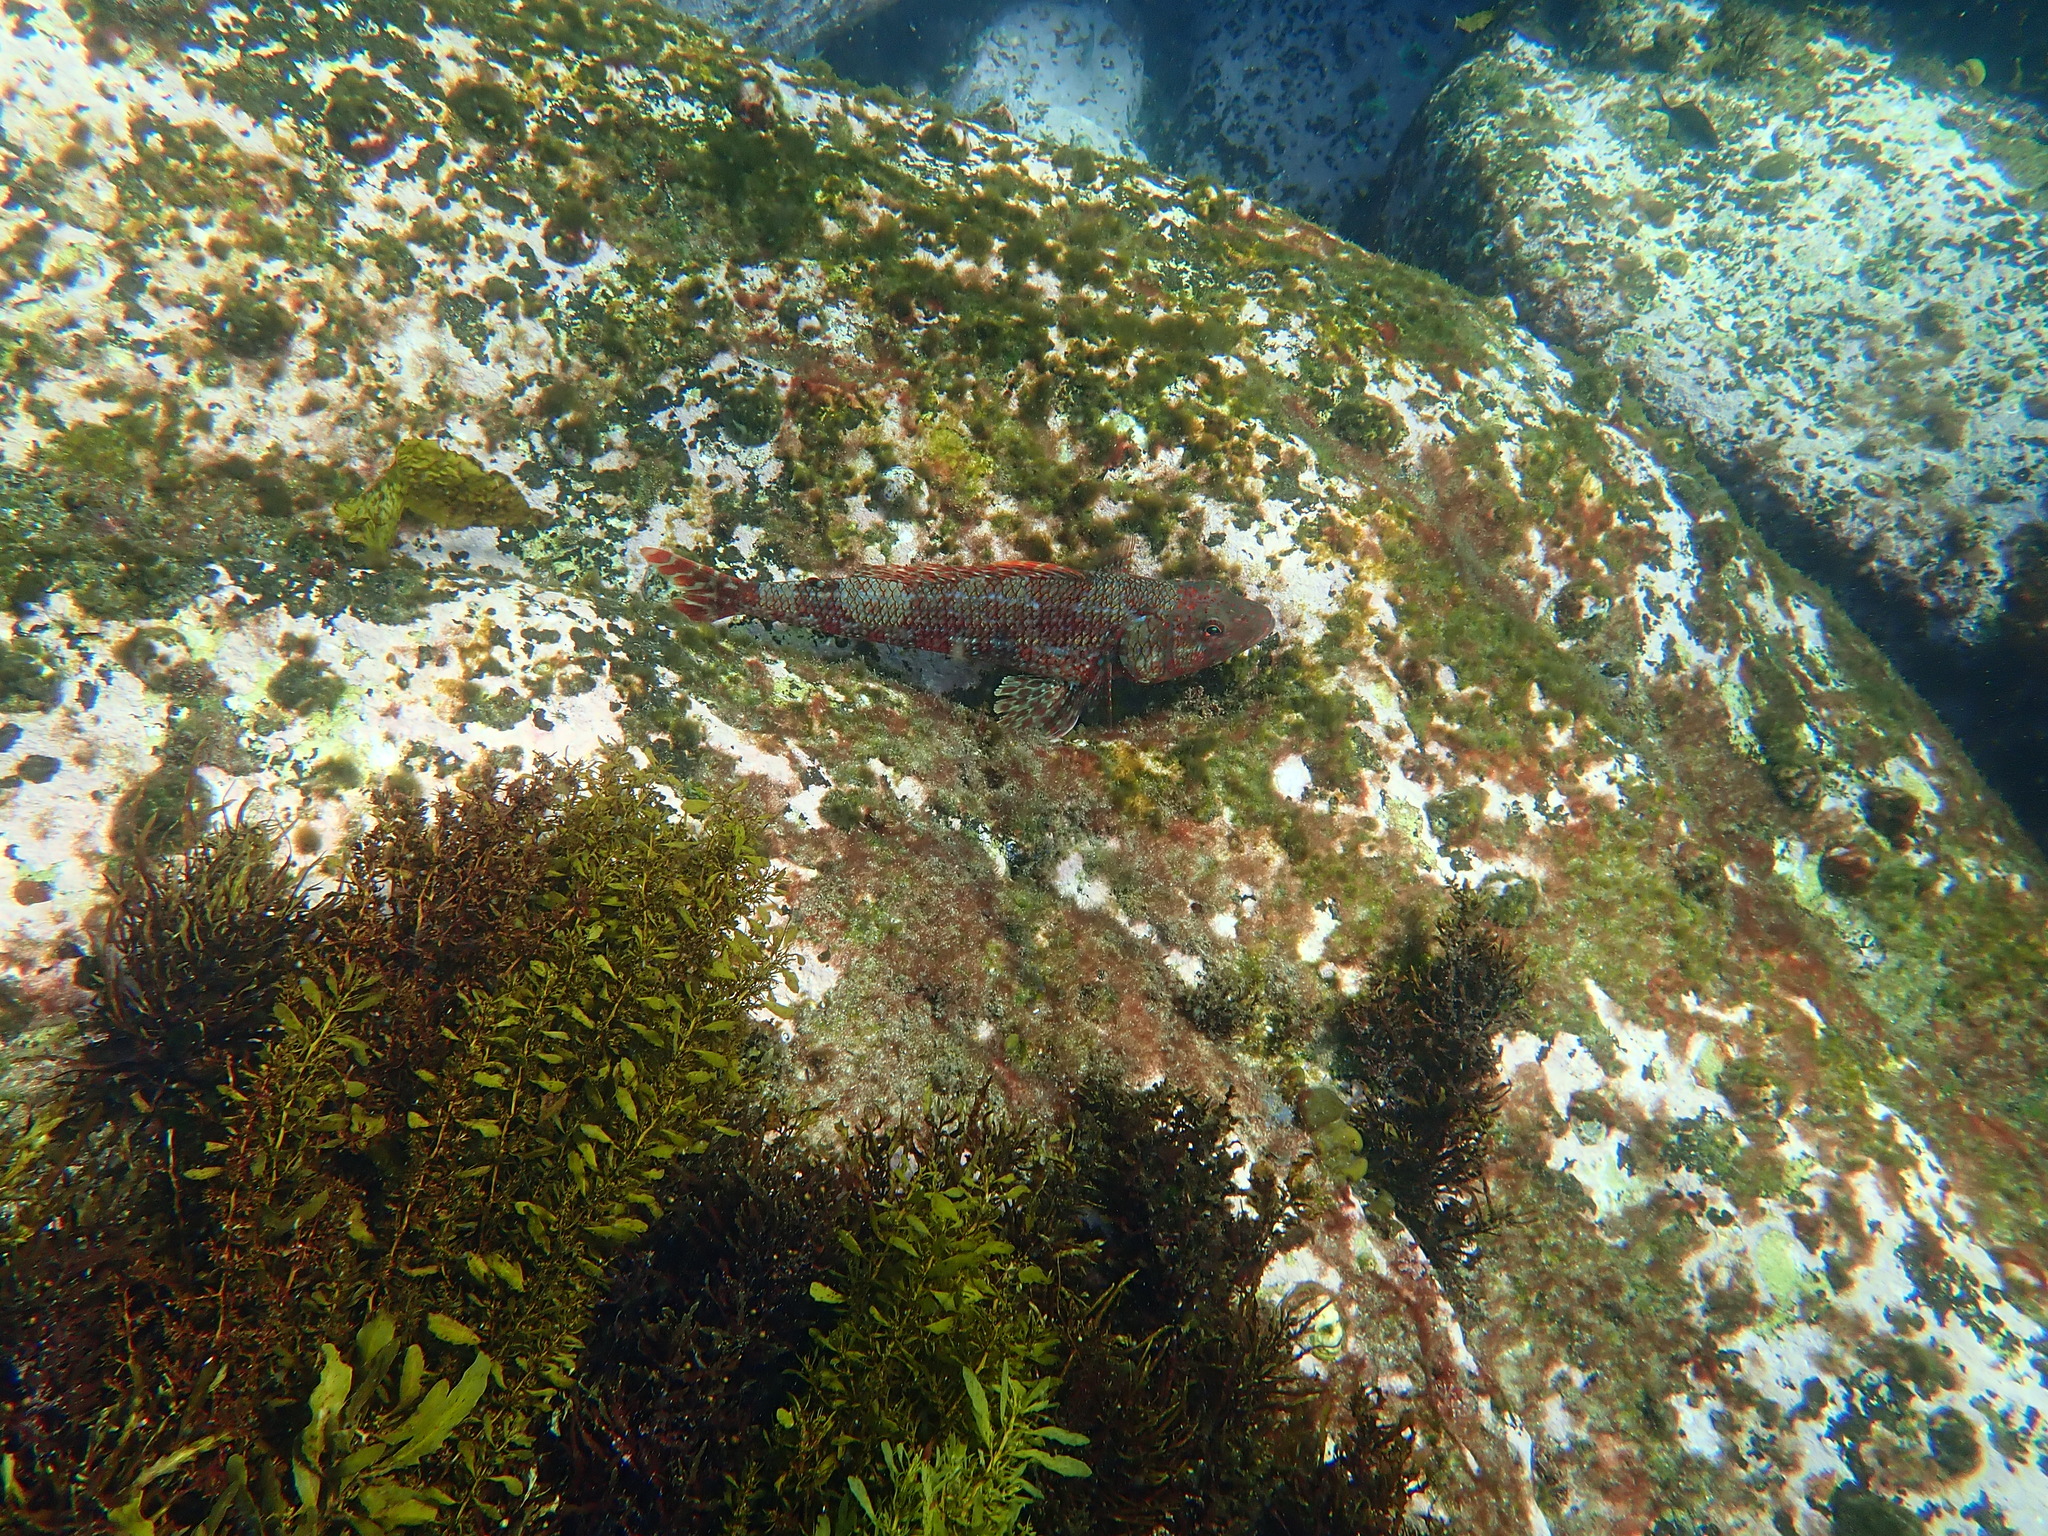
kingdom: Animalia
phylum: Chordata
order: Aulopiformes
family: Aulopidae
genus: Latropiscis
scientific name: Latropiscis purpurissatus
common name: Sergeant baker
